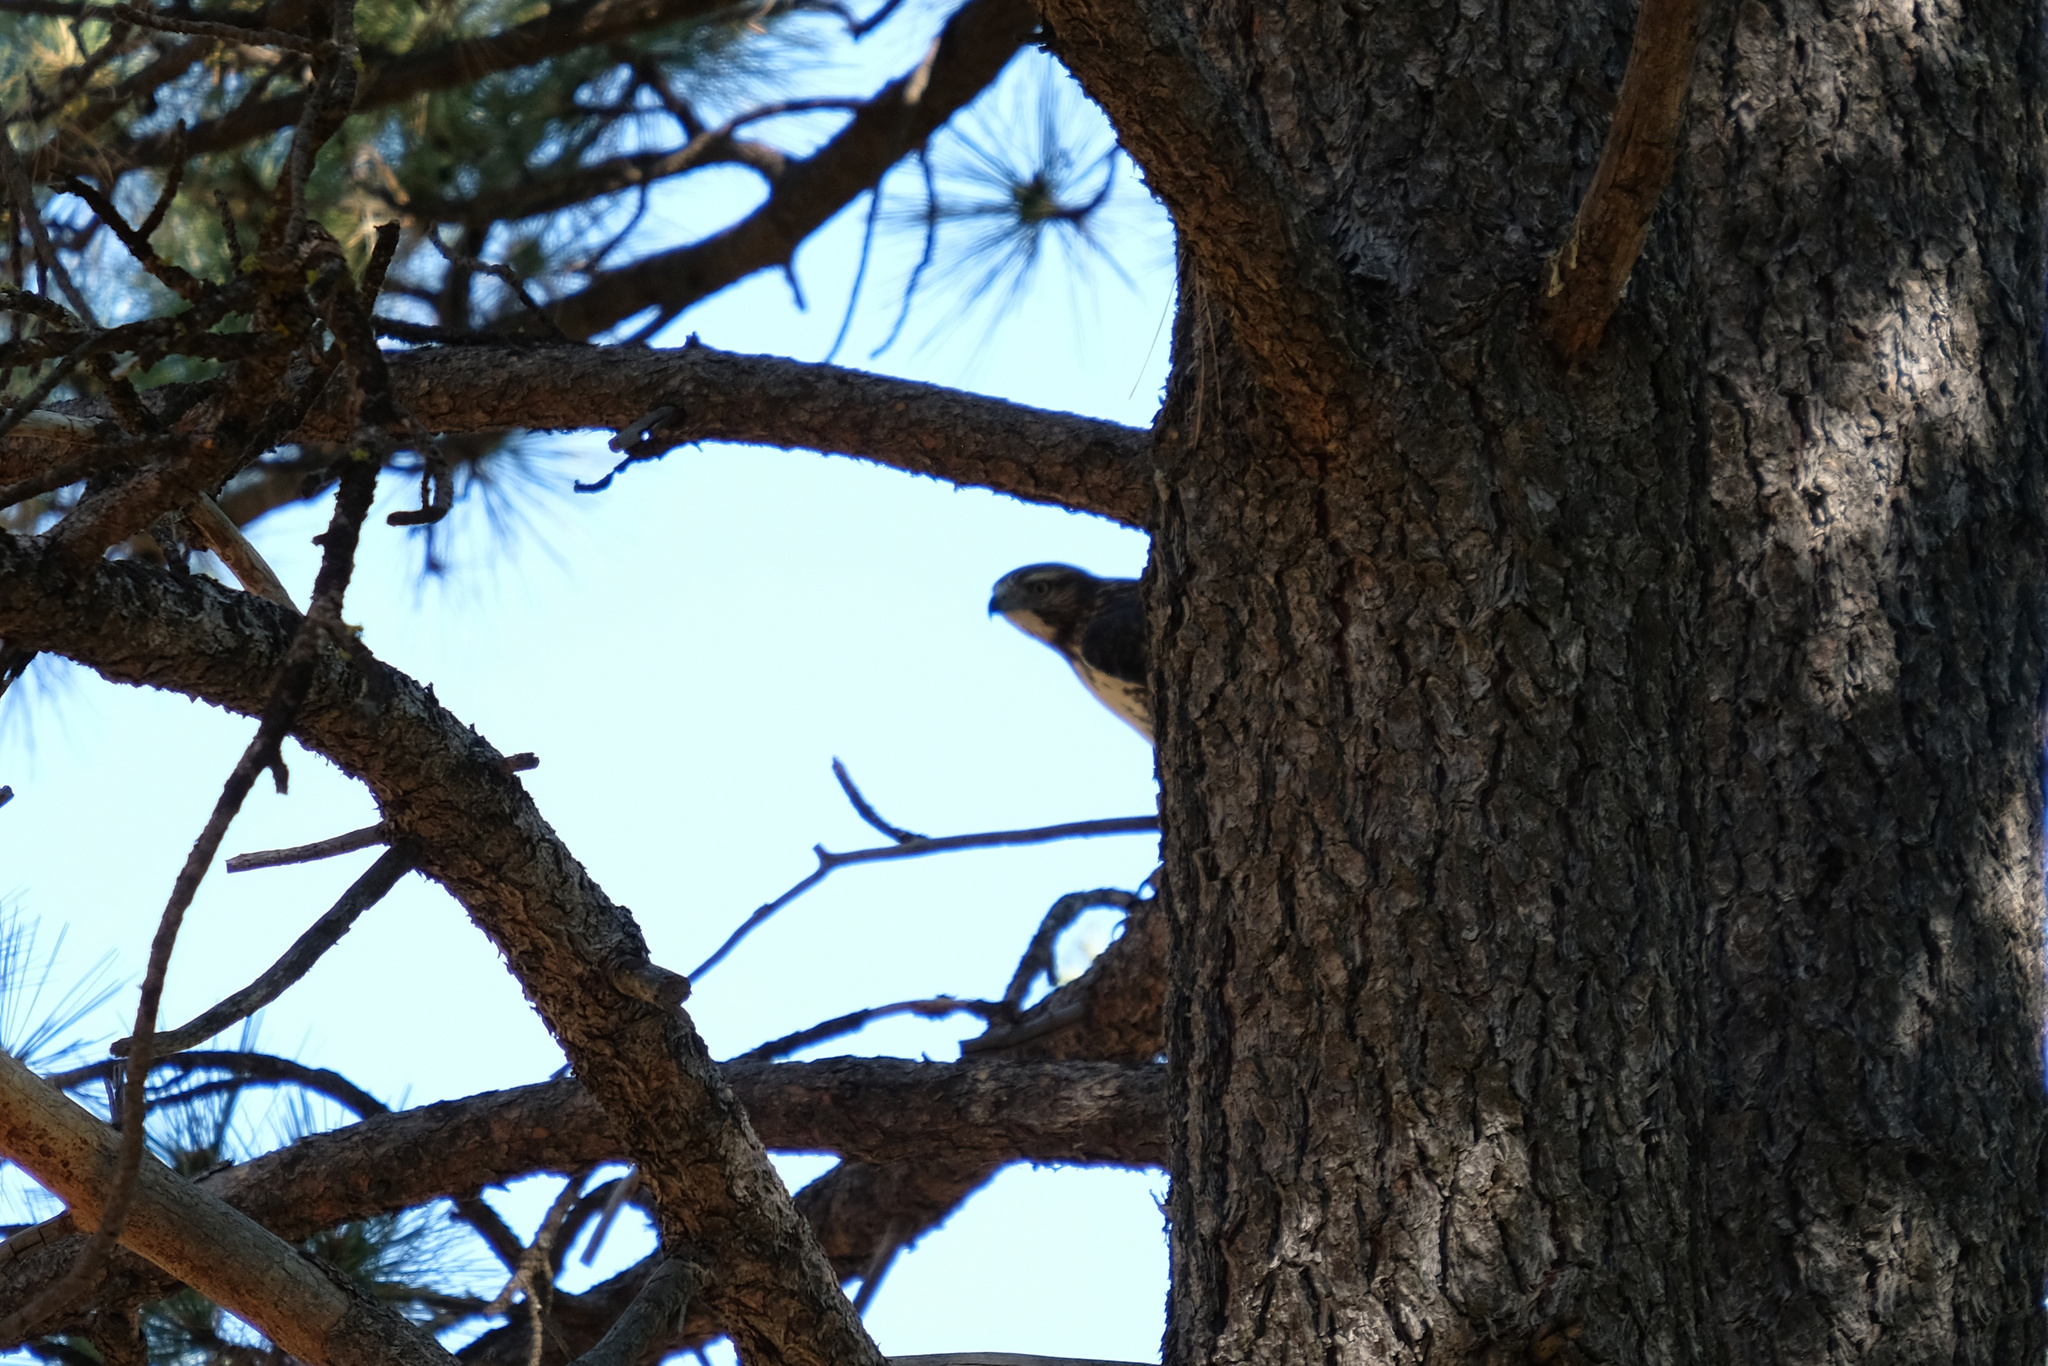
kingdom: Animalia
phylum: Chordata
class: Aves
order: Accipitriformes
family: Accipitridae
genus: Buteo
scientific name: Buteo jamaicensis
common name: Red-tailed hawk
